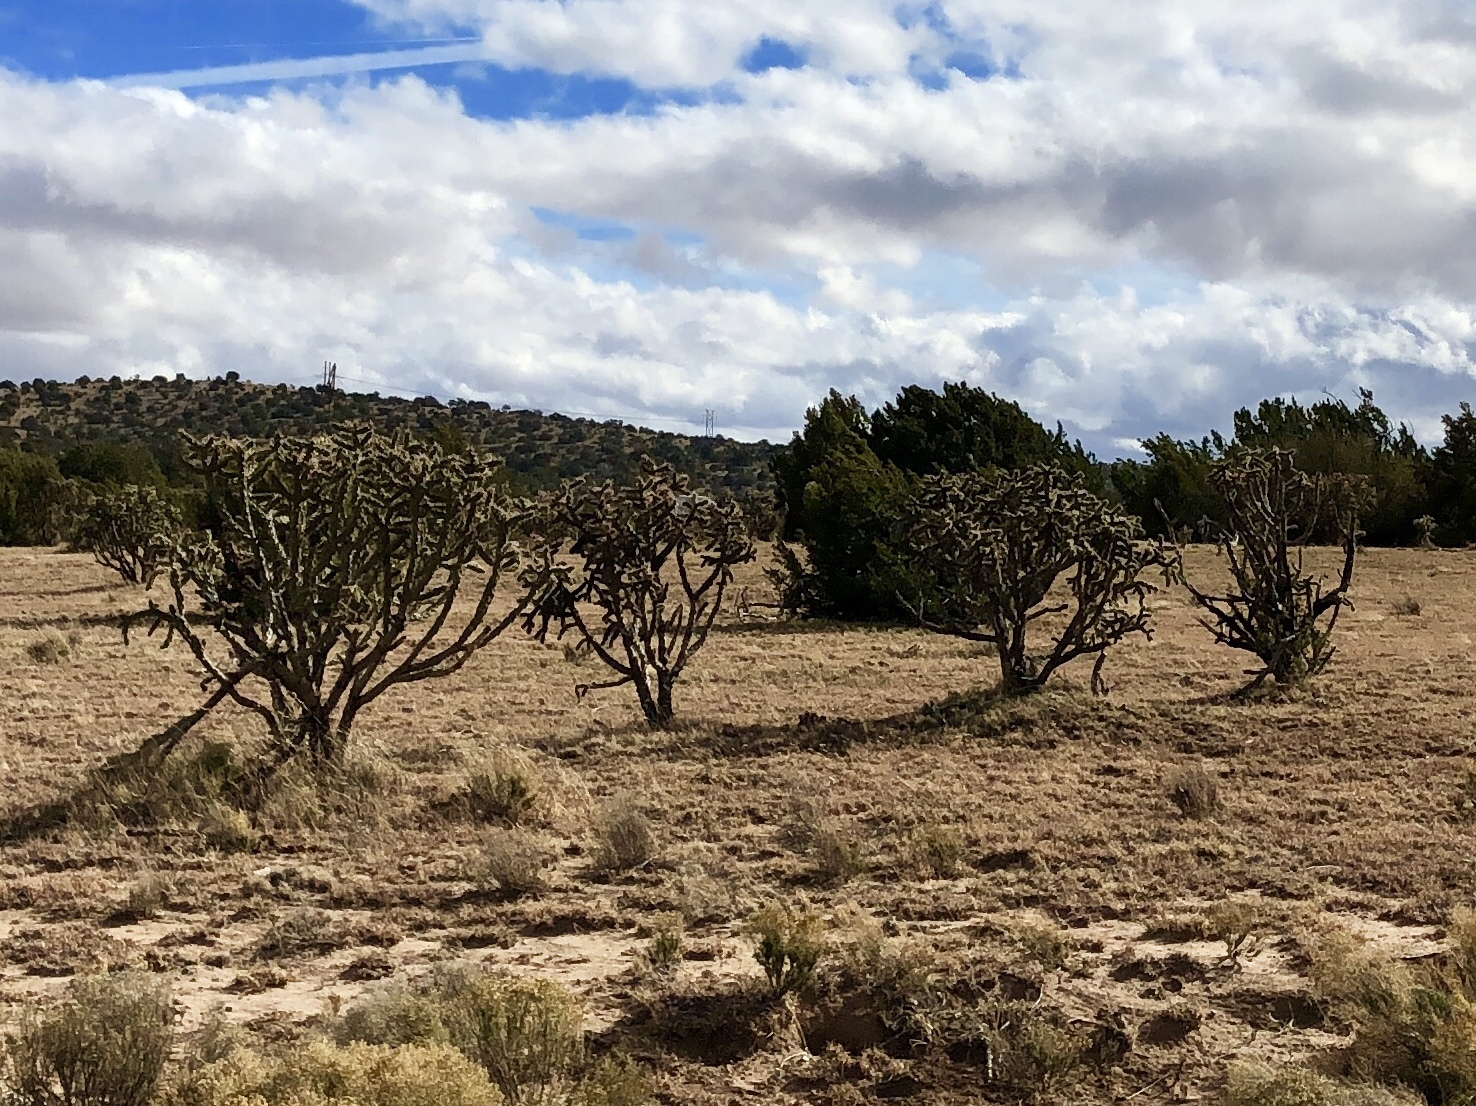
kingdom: Plantae
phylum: Tracheophyta
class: Magnoliopsida
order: Caryophyllales
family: Cactaceae
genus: Cylindropuntia
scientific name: Cylindropuntia imbricata
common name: Candelabrum cactus
